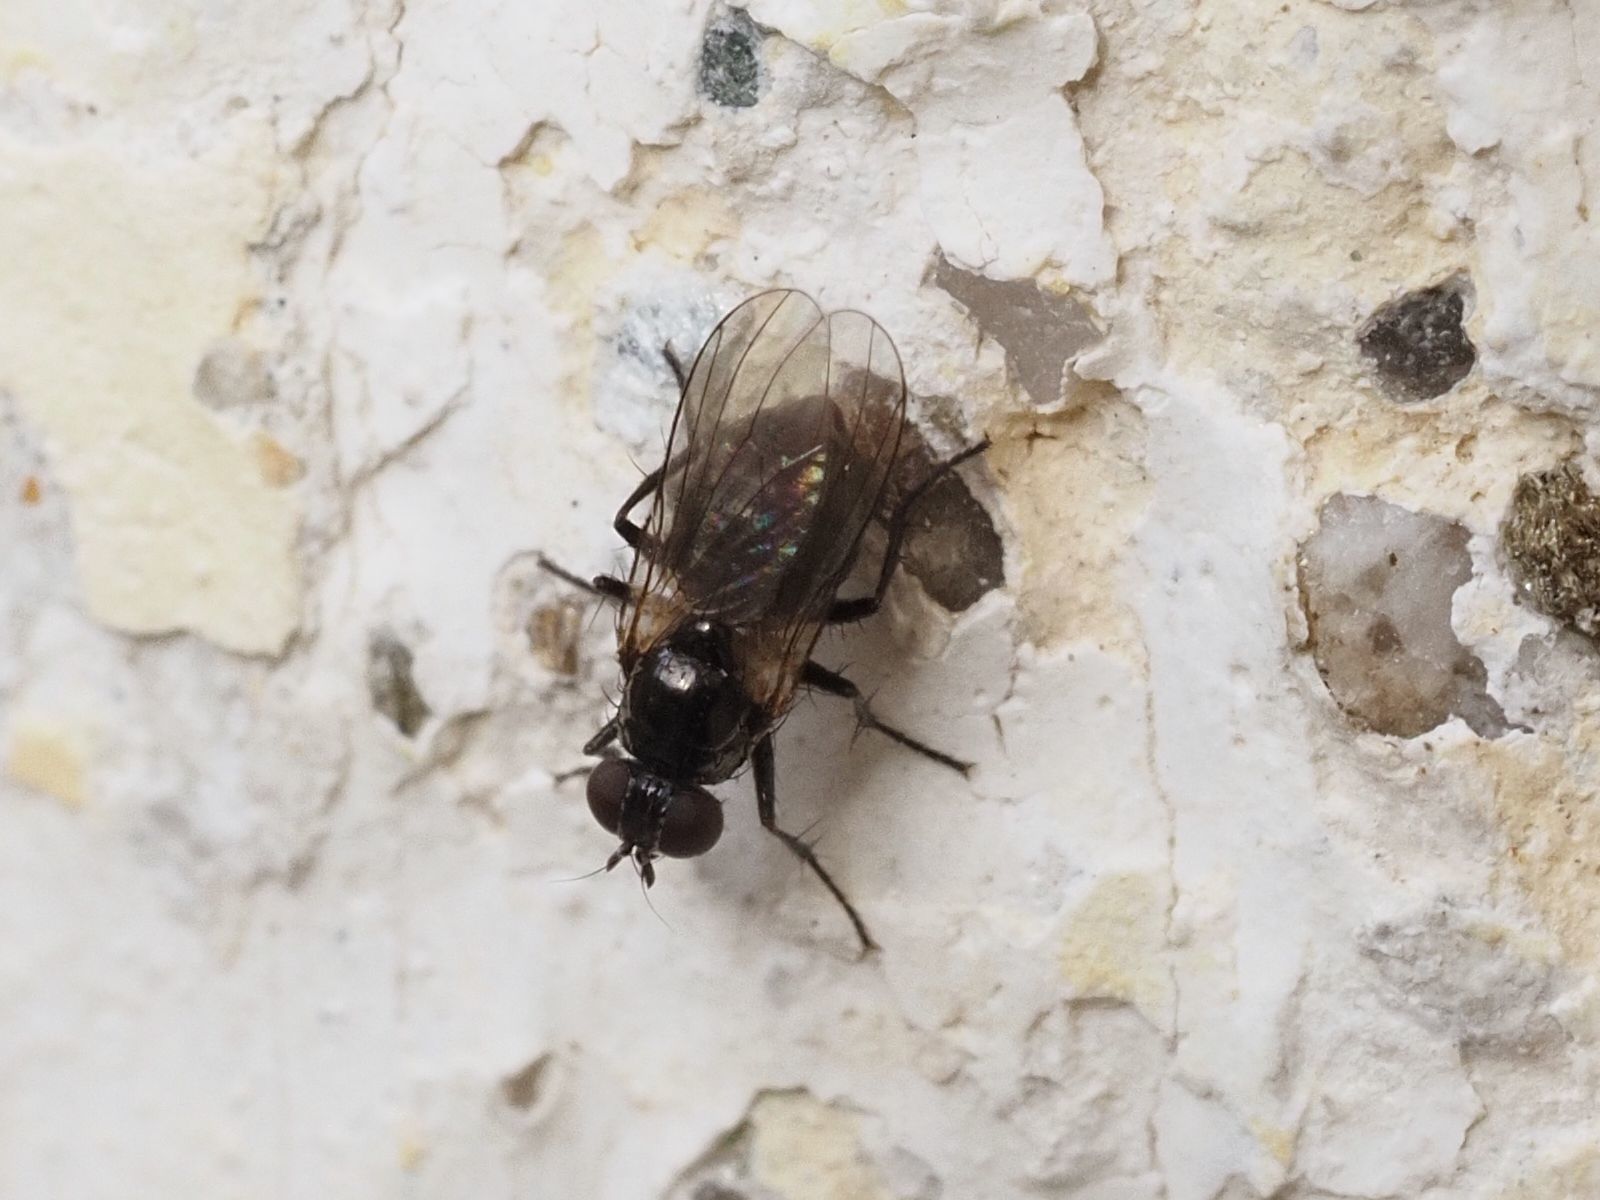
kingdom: Animalia
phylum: Arthropoda
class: Insecta
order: Diptera
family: Muscidae
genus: Coenosia
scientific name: Coenosia atra
